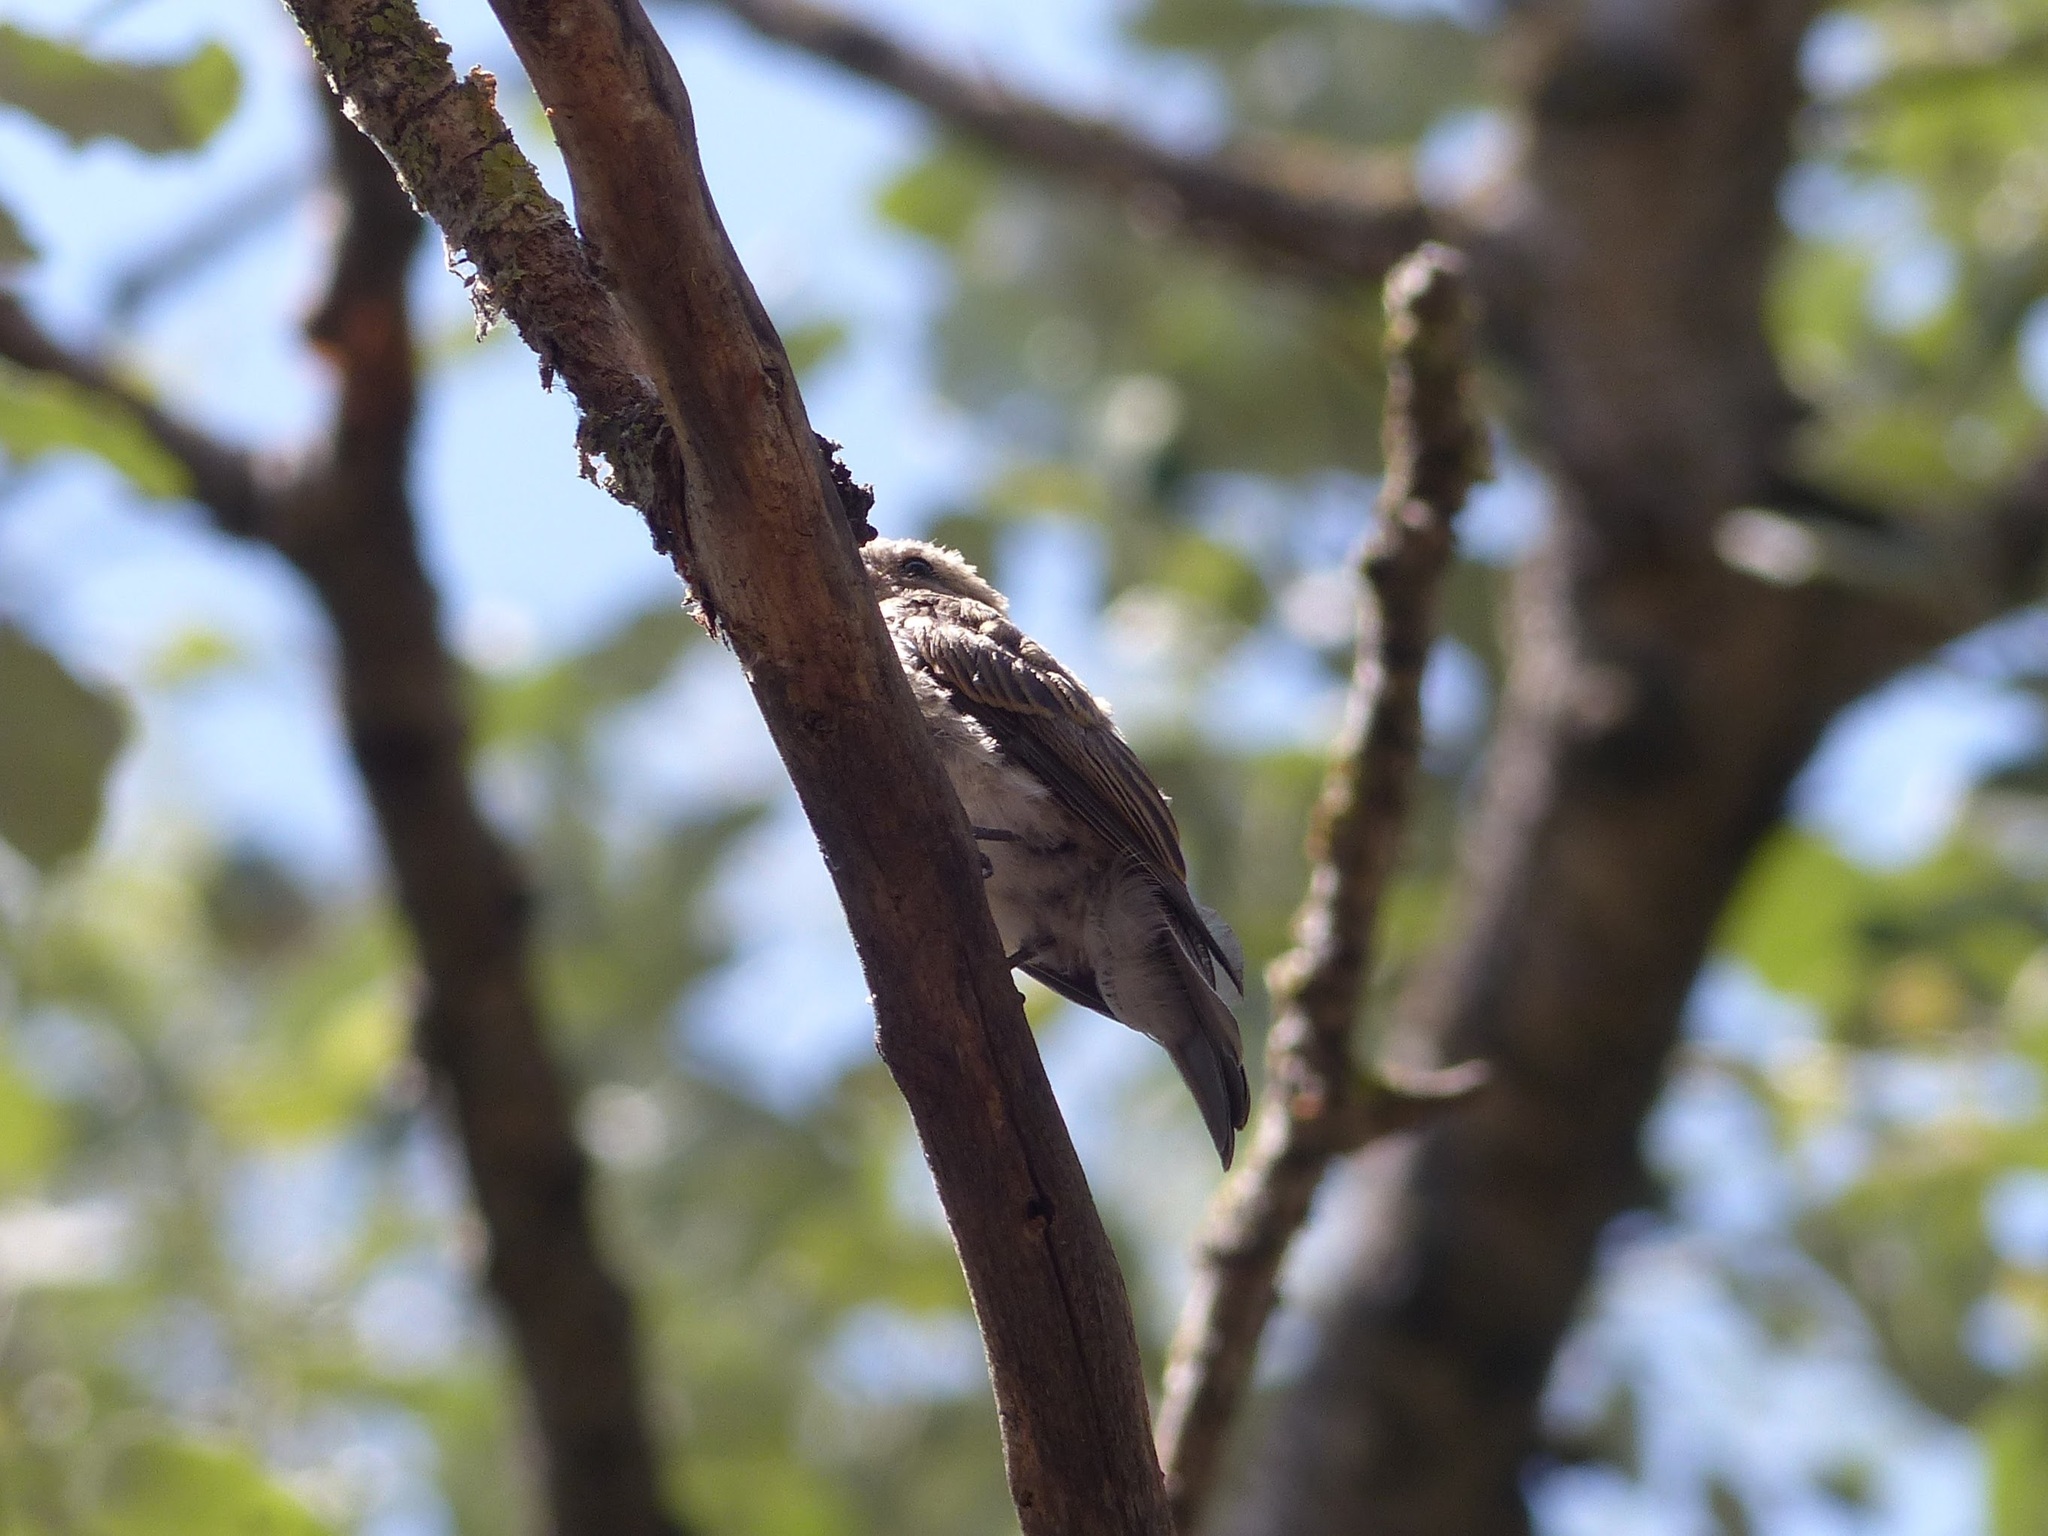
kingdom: Animalia
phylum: Chordata
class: Aves
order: Passeriformes
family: Muscicapidae
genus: Muscicapa
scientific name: Muscicapa striata
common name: Spotted flycatcher
